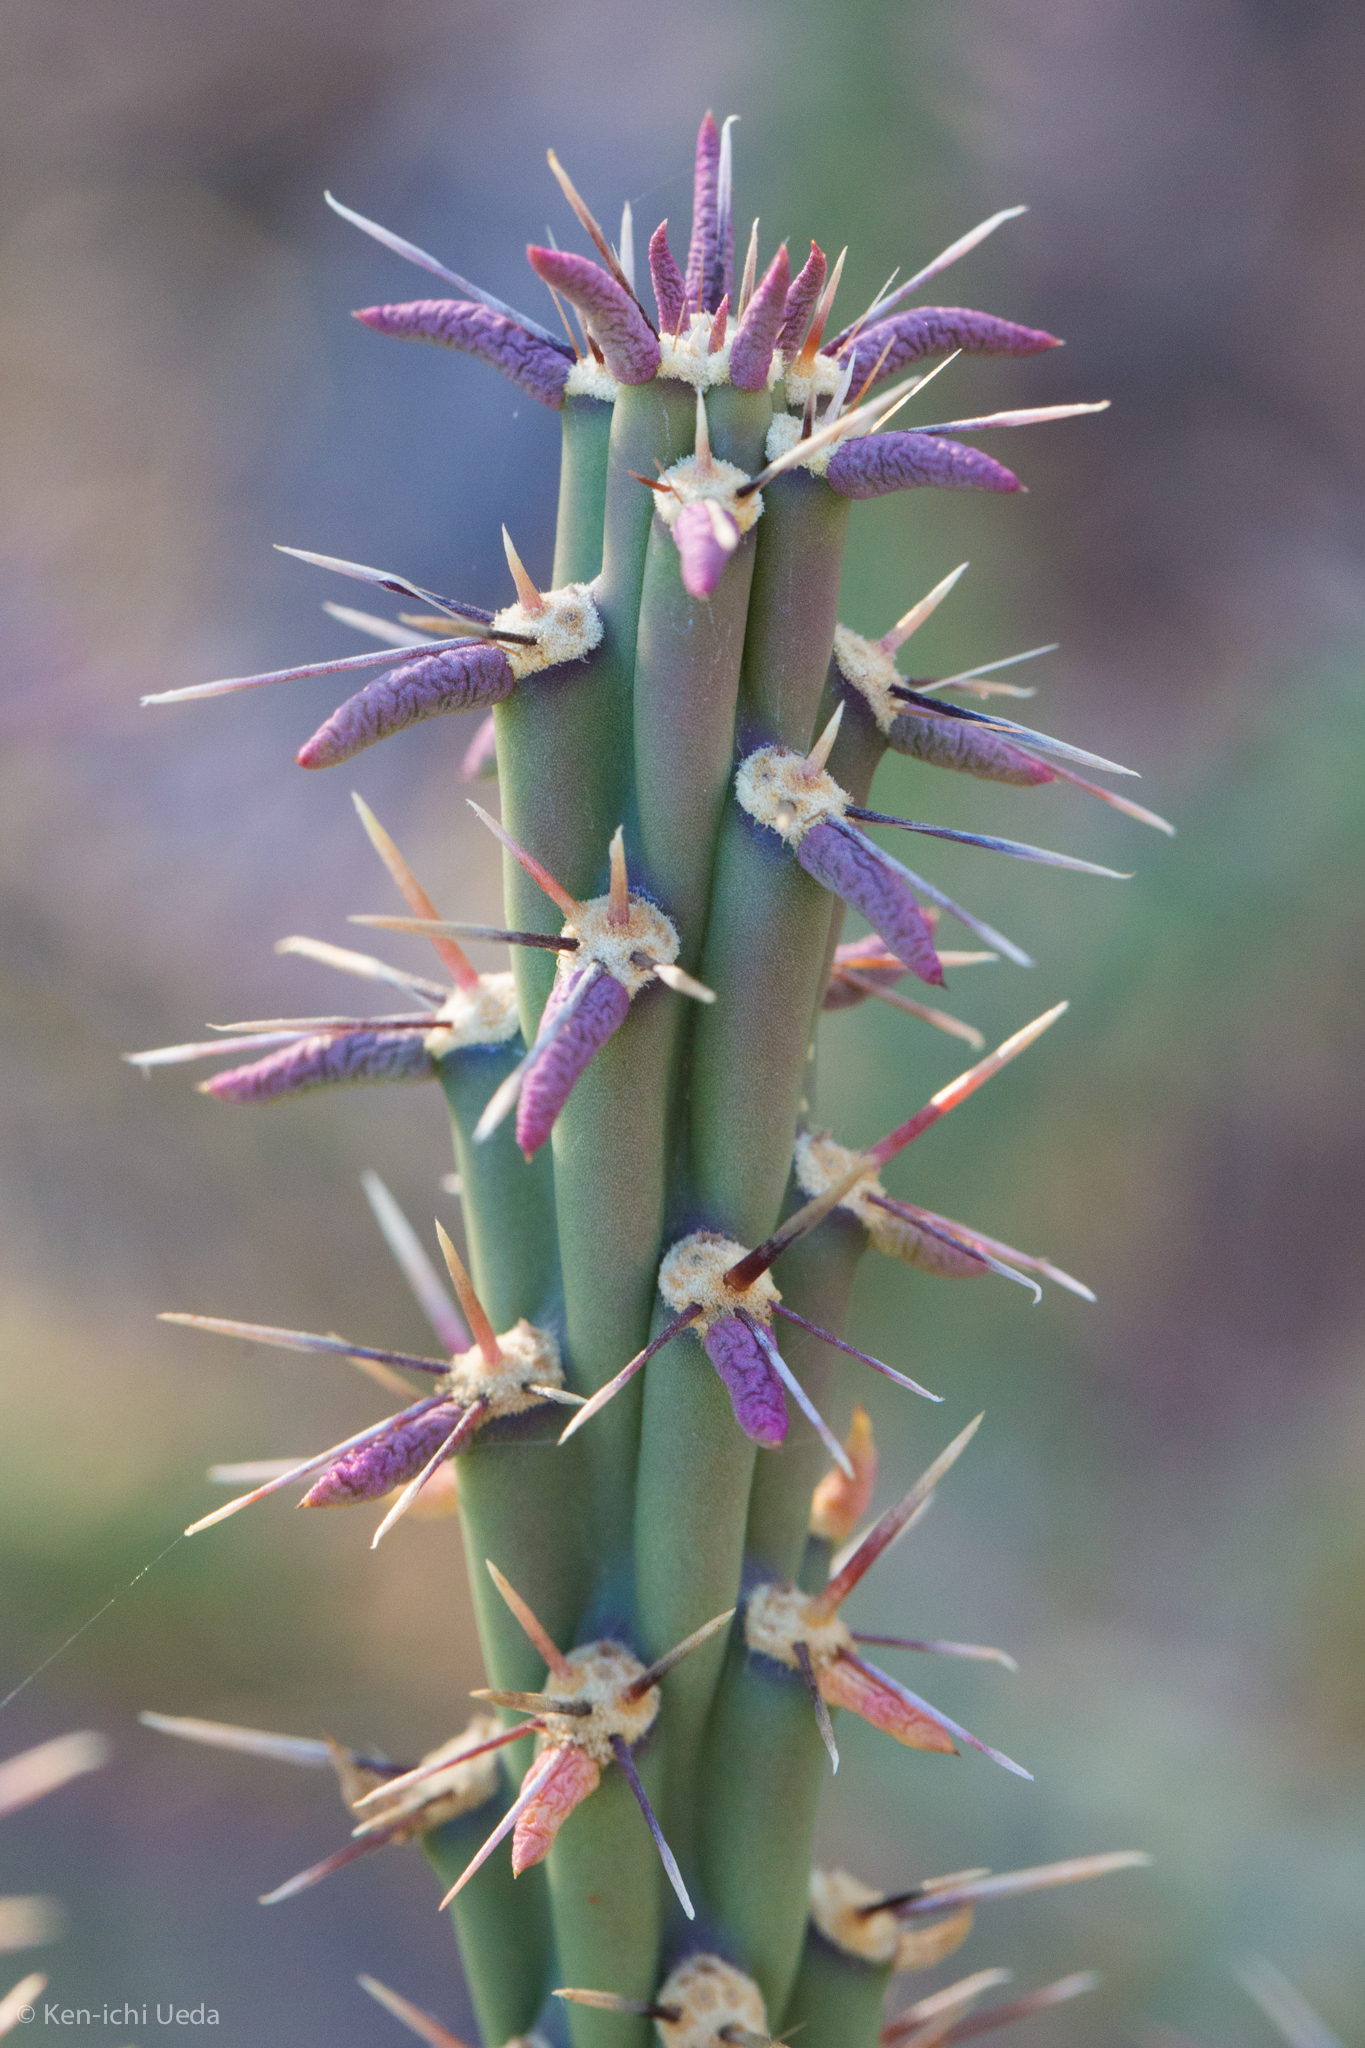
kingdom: Plantae
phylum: Tracheophyta
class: Magnoliopsida
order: Caryophyllales
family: Cactaceae
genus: Cylindropuntia
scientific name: Cylindropuntia thurberi
